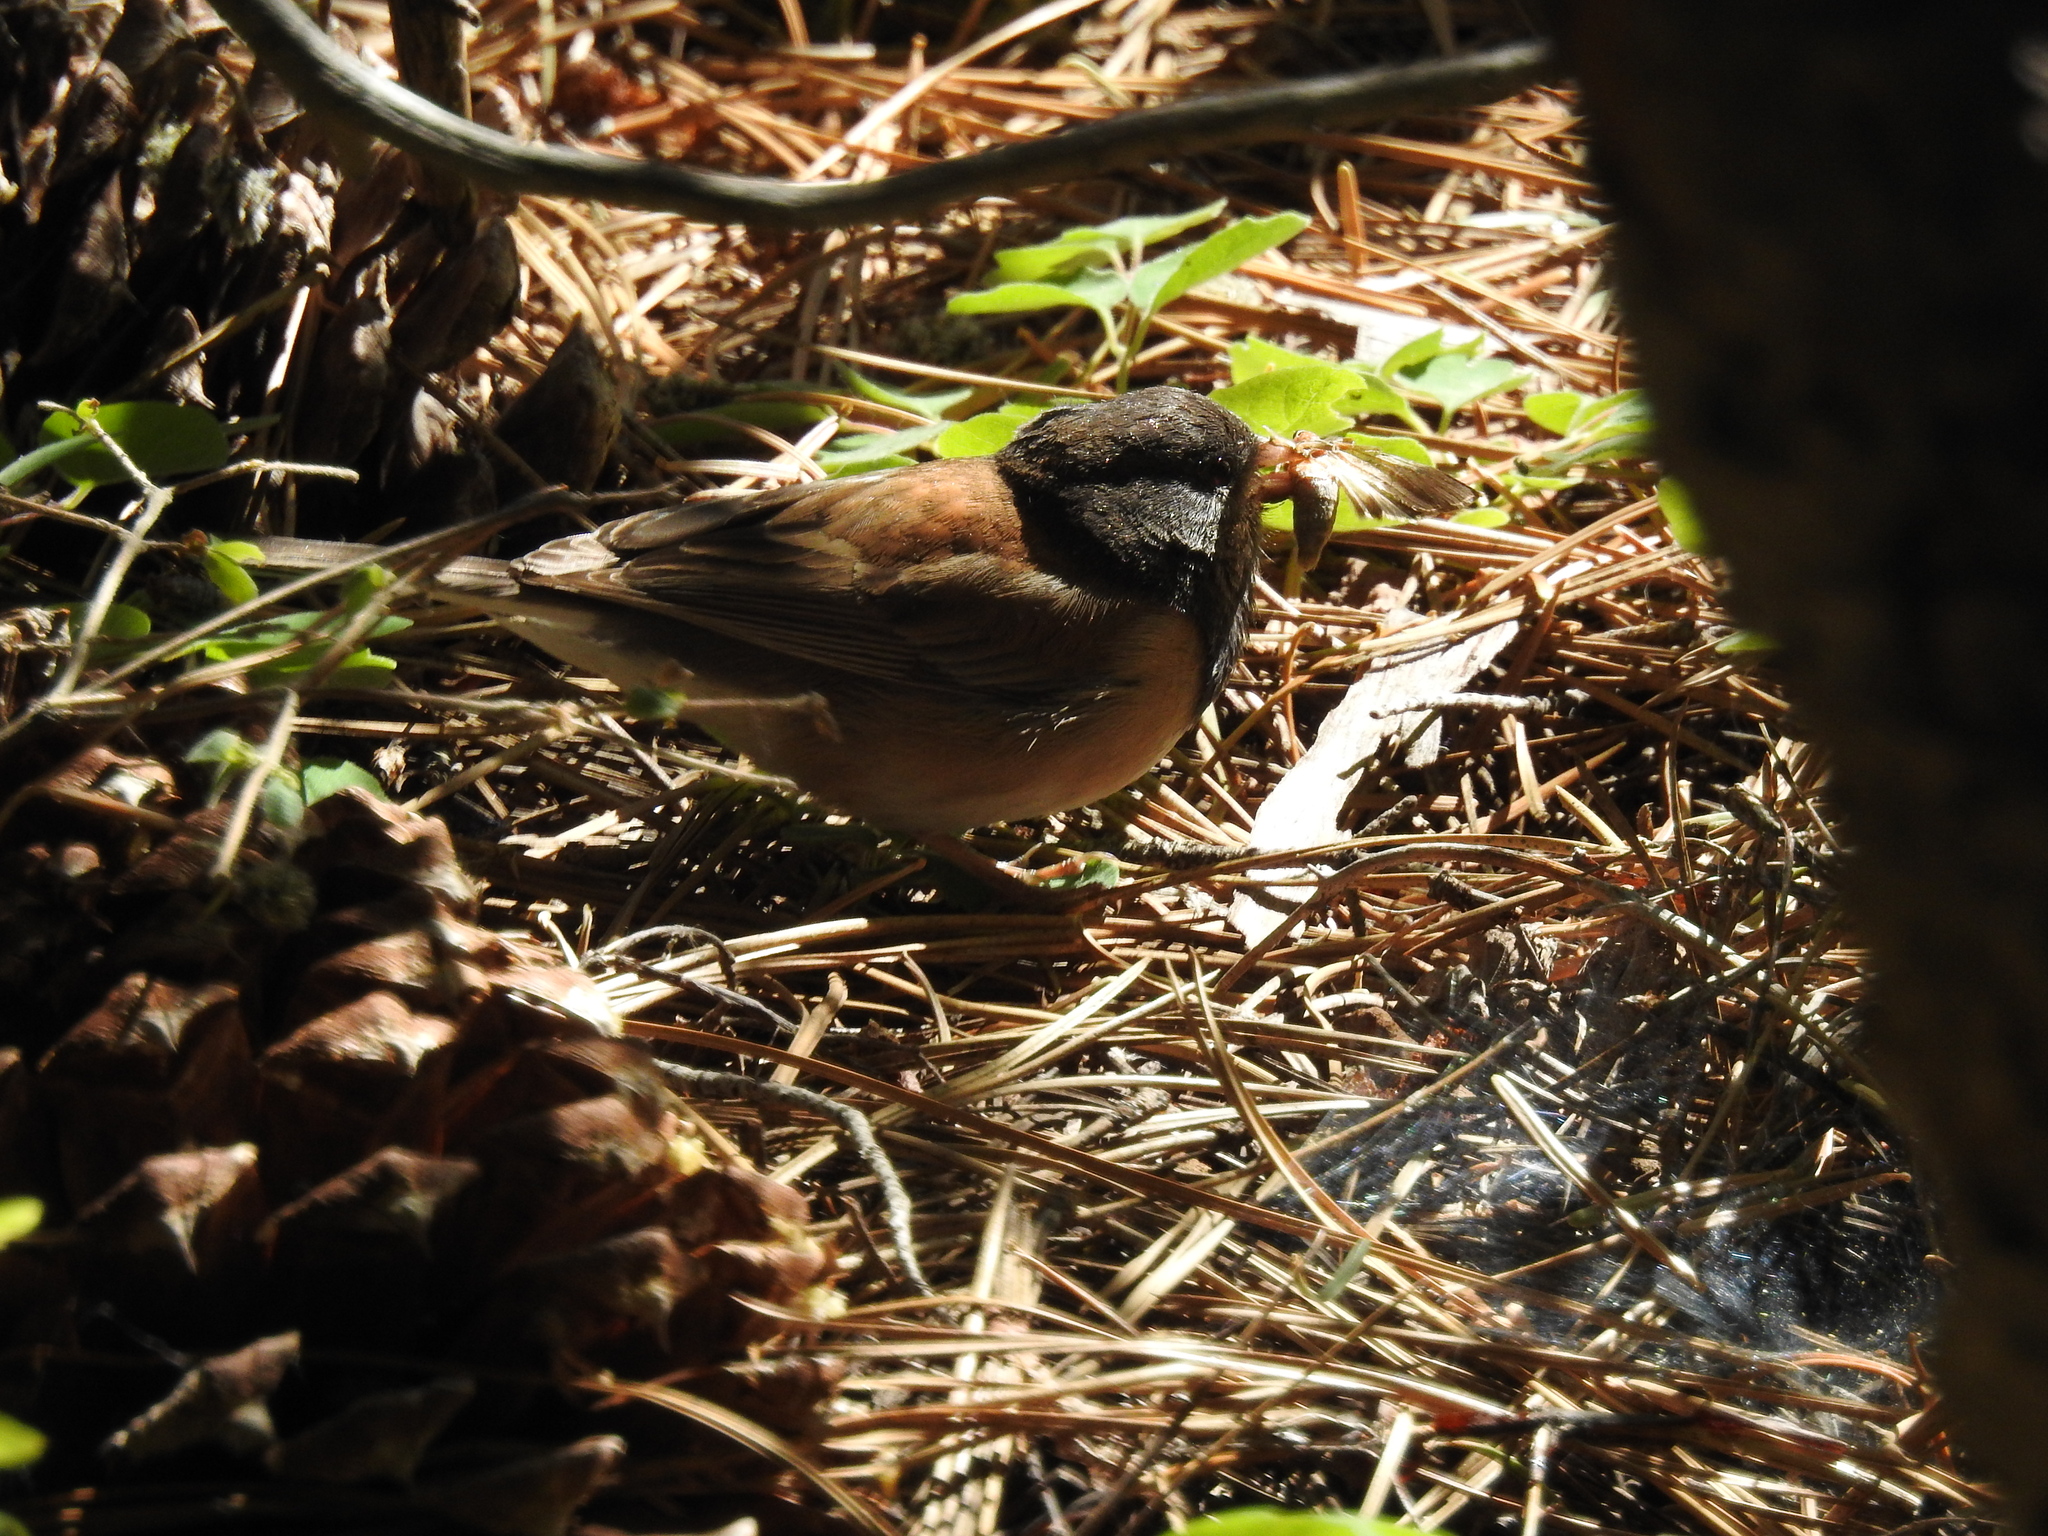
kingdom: Animalia
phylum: Chordata
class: Aves
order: Passeriformes
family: Passerellidae
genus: Junco
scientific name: Junco hyemalis
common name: Dark-eyed junco
